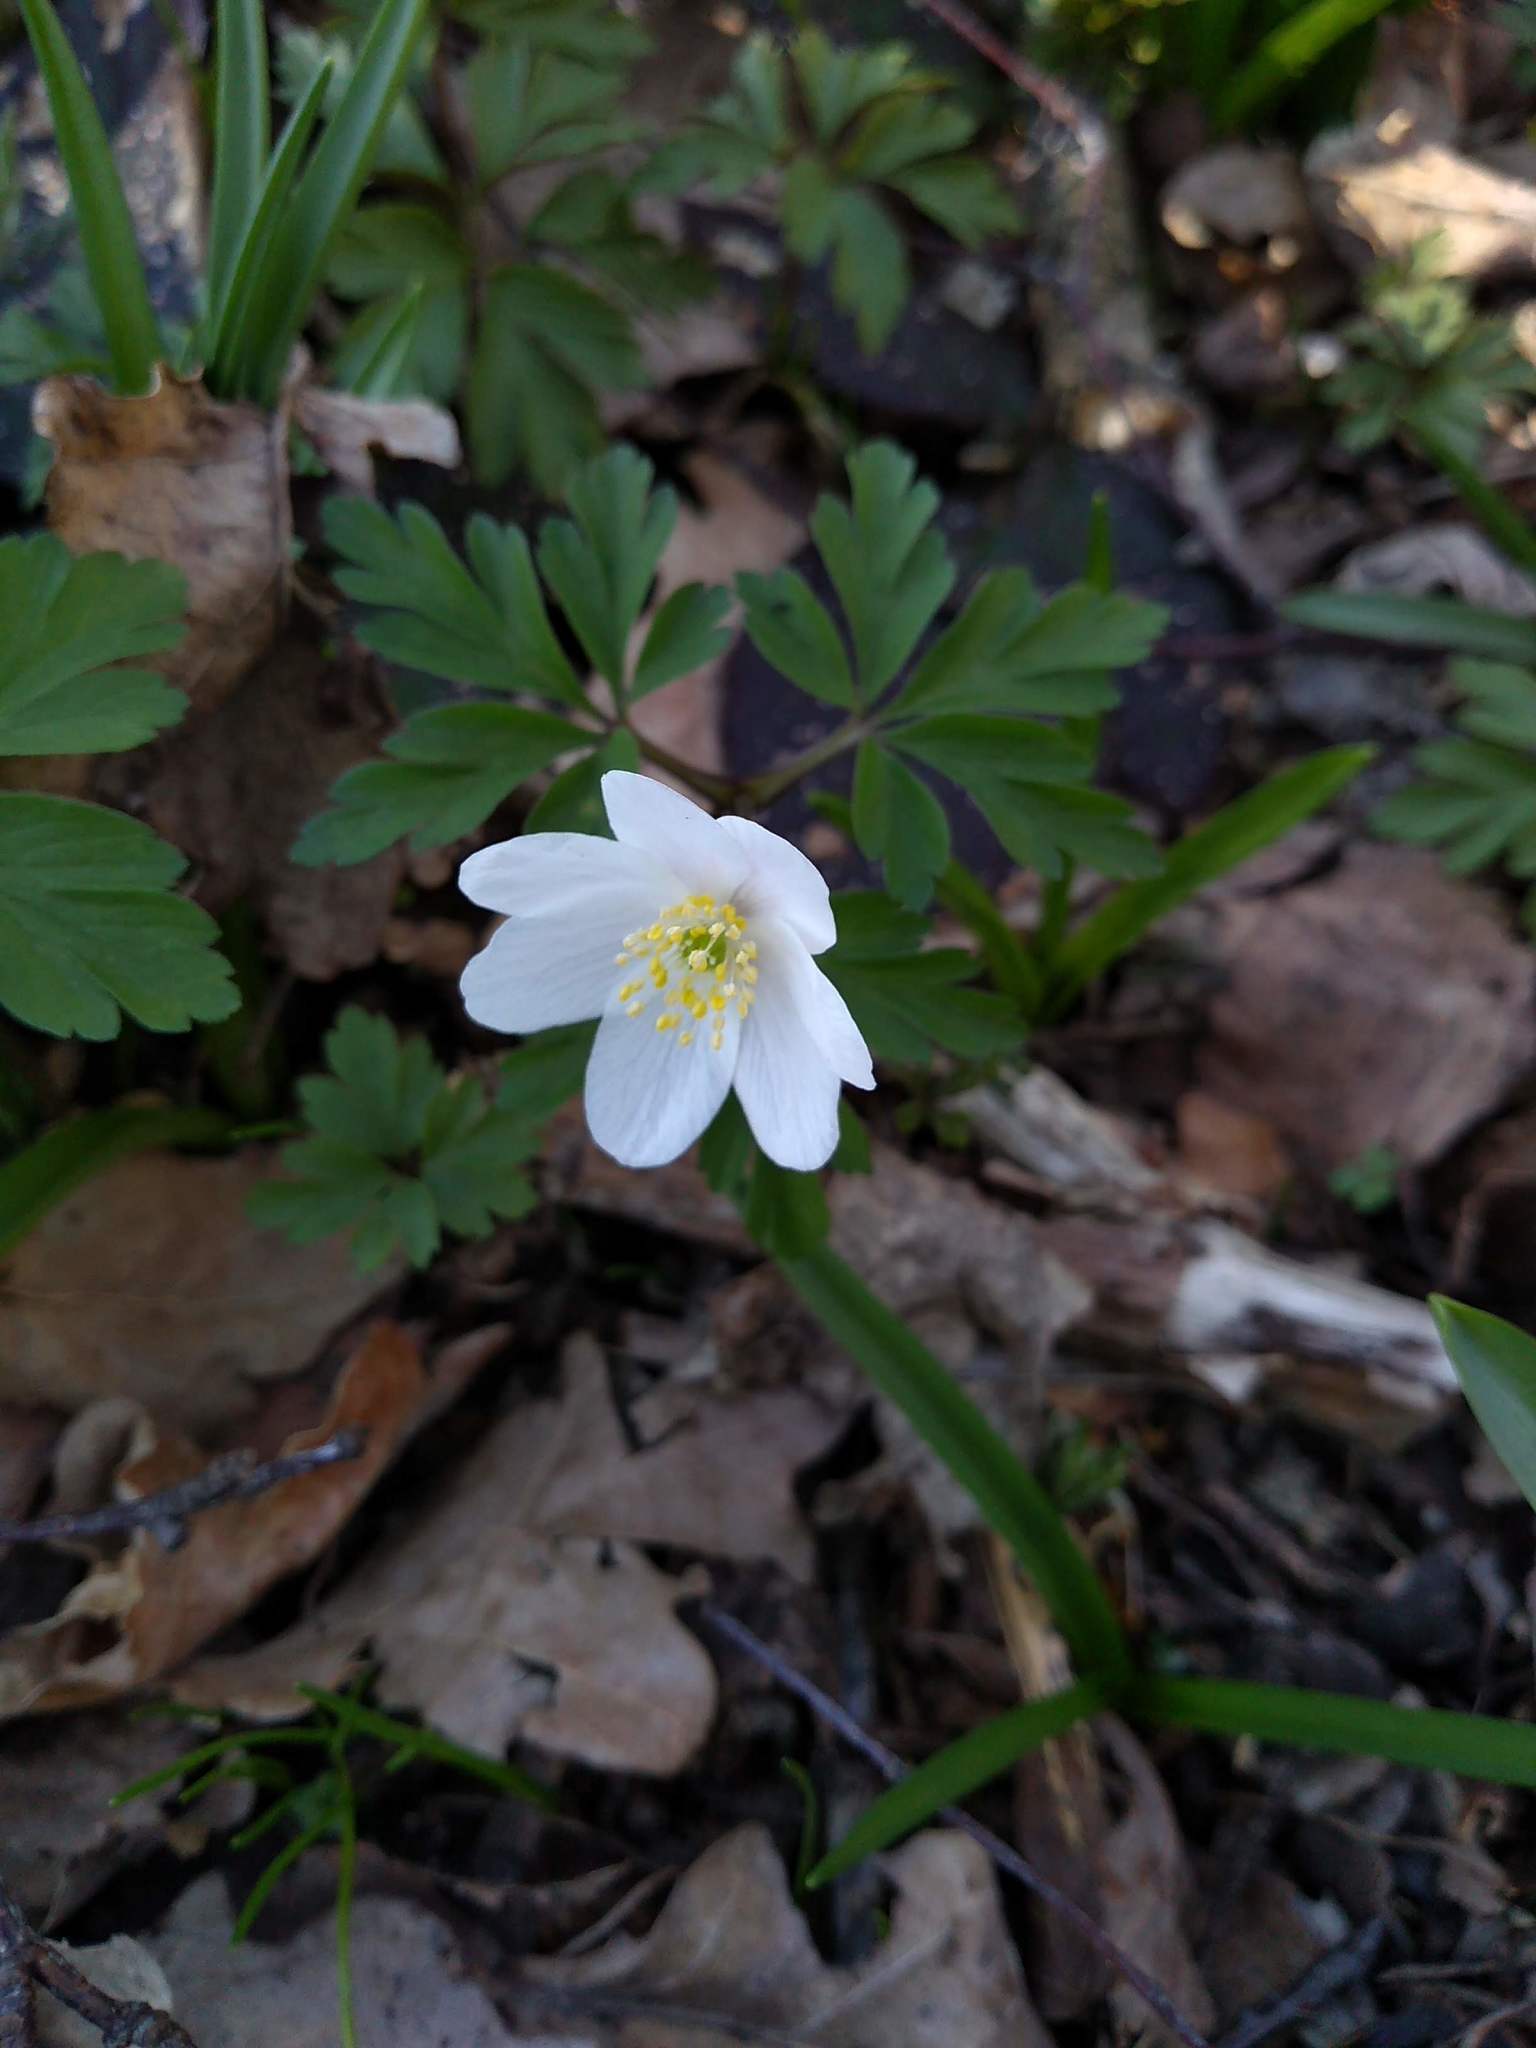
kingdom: Plantae
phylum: Tracheophyta
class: Magnoliopsida
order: Ranunculales
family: Ranunculaceae
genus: Anemone
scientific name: Anemone nemorosa
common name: Wood anemone
